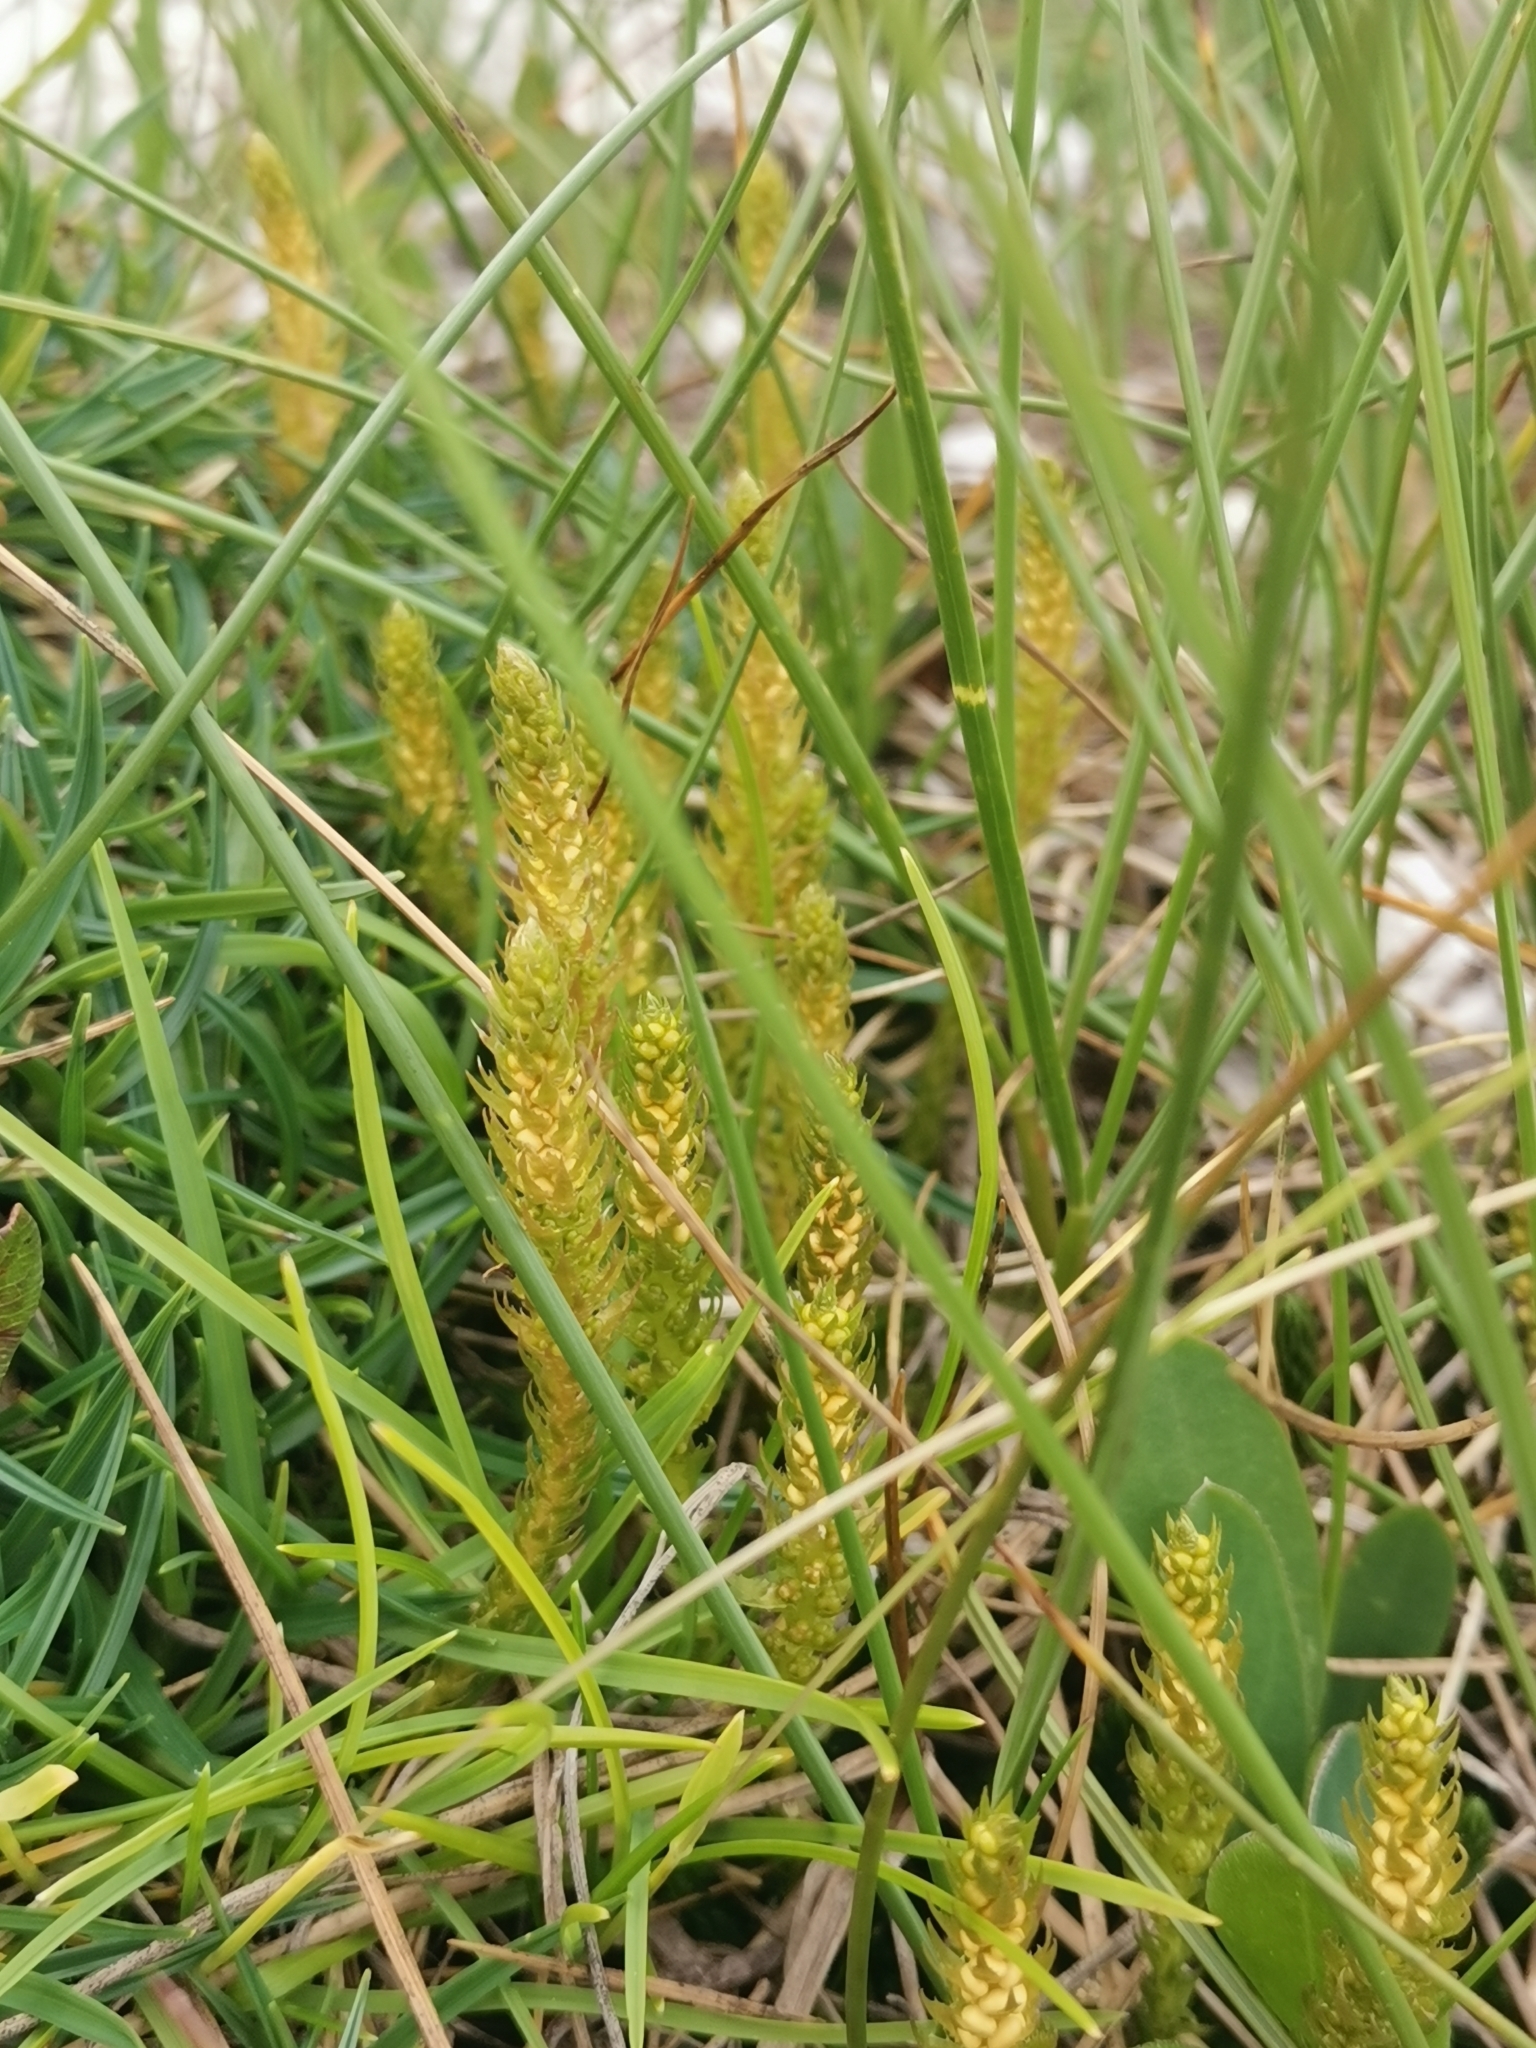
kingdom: Plantae
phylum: Tracheophyta
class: Lycopodiopsida
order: Selaginellales
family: Selaginellaceae
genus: Selaginella
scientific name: Selaginella selaginoides
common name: Prickly mountain-moss
